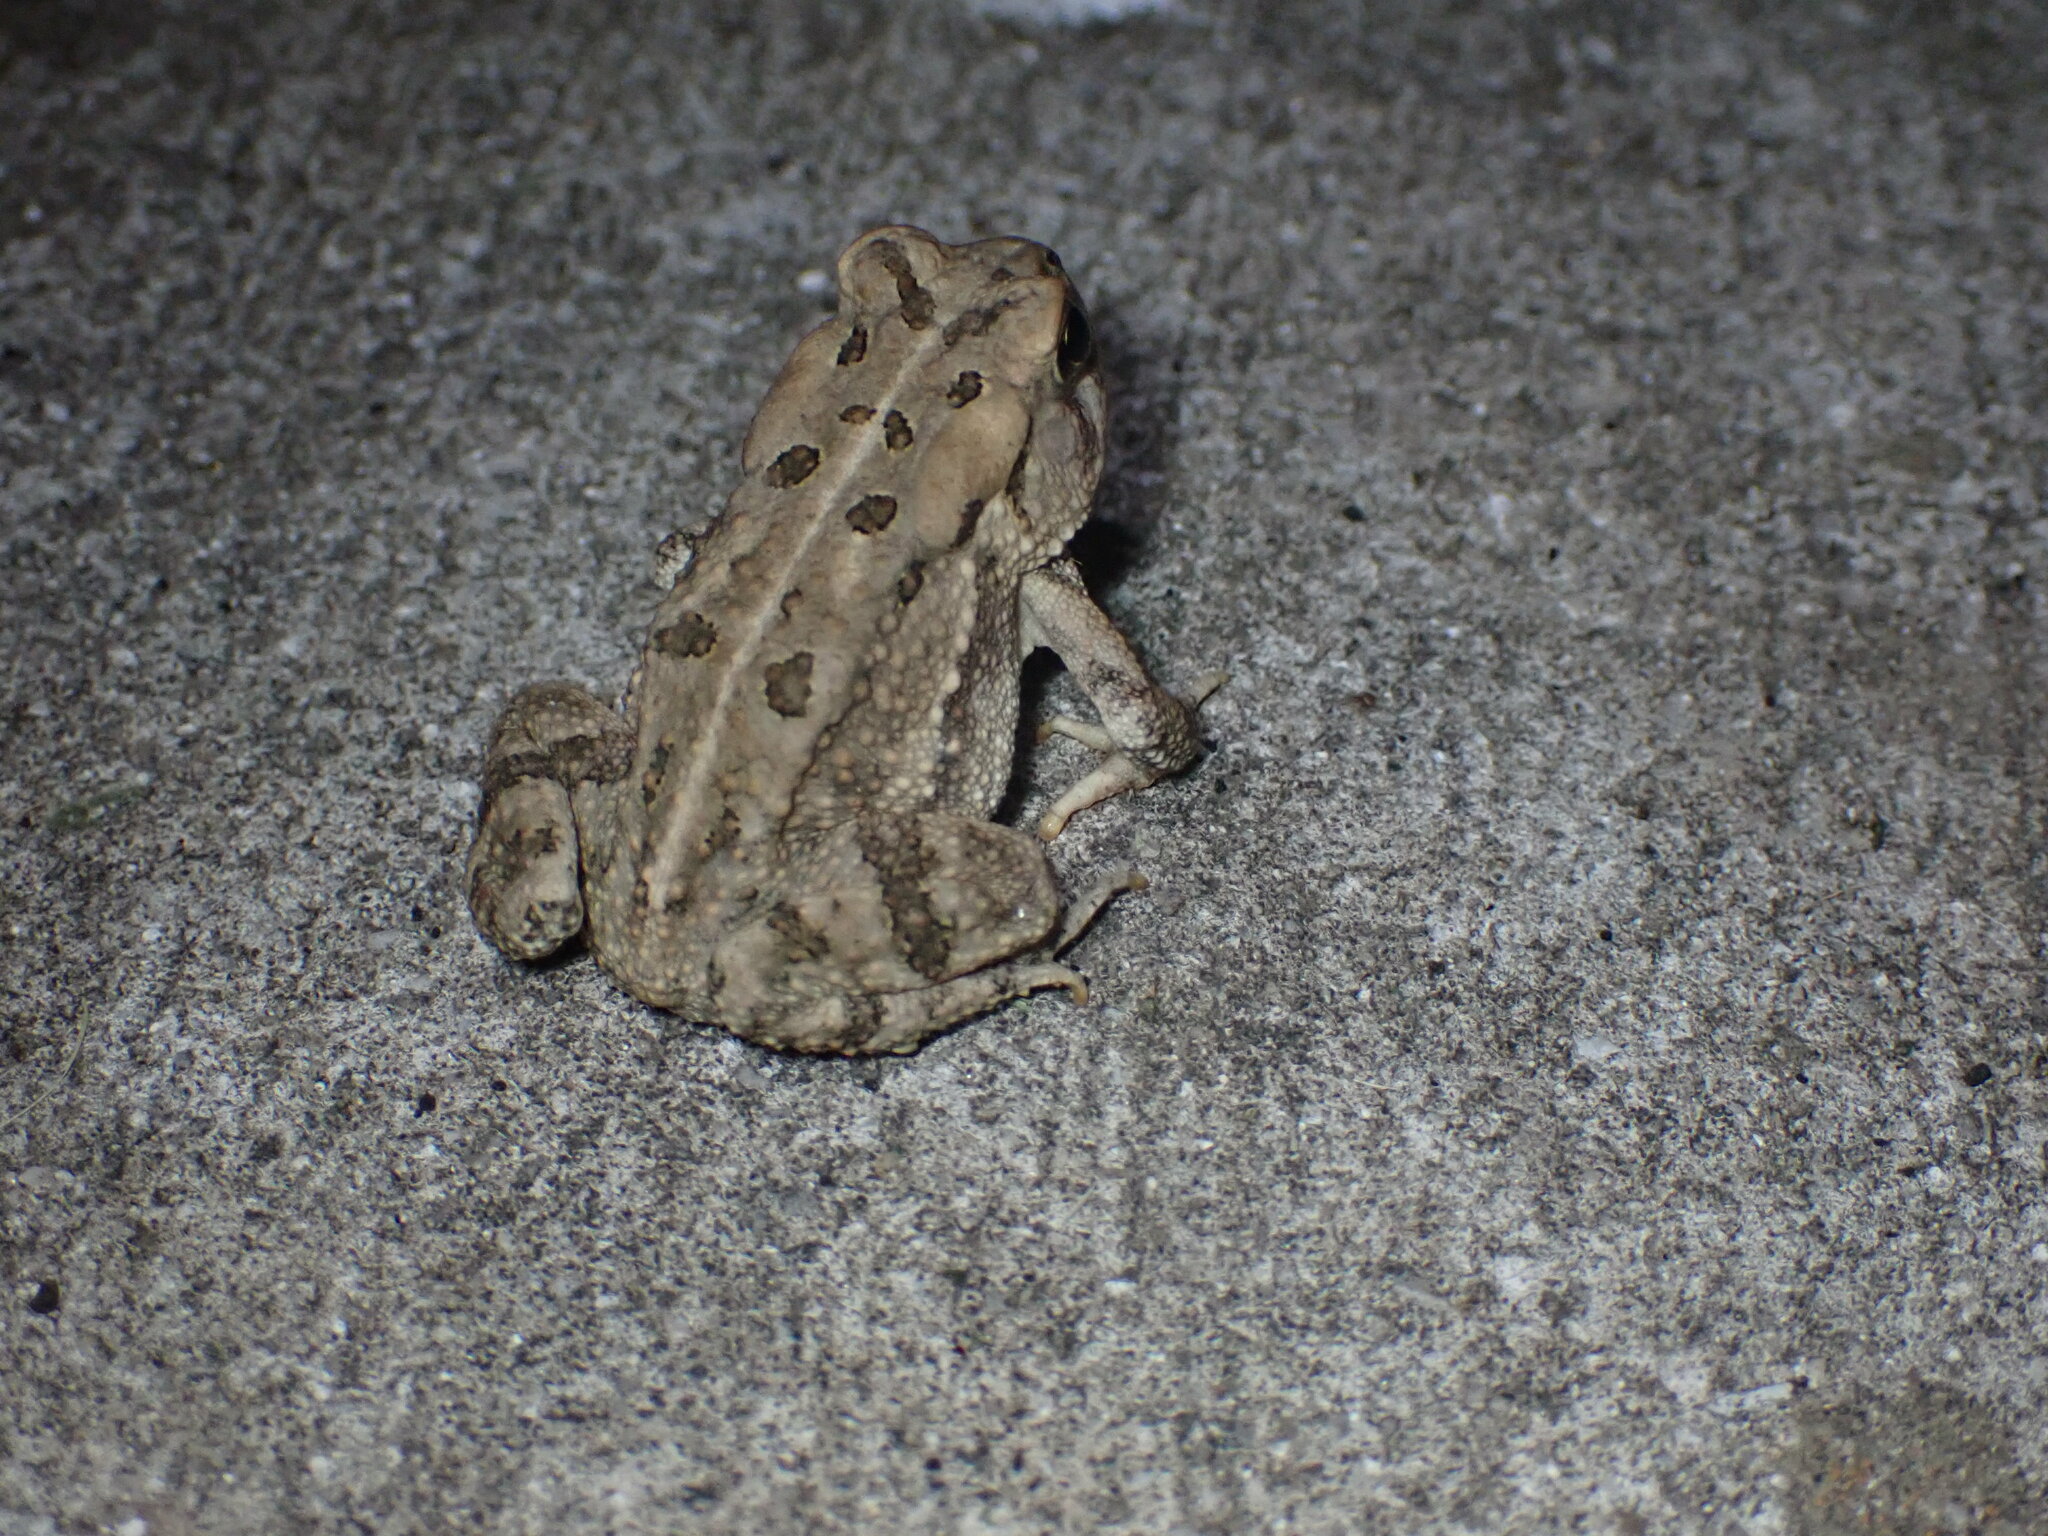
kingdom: Animalia
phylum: Chordata
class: Amphibia
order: Anura
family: Bufonidae
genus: Anaxyrus
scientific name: Anaxyrus fowleri
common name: Fowler's toad
